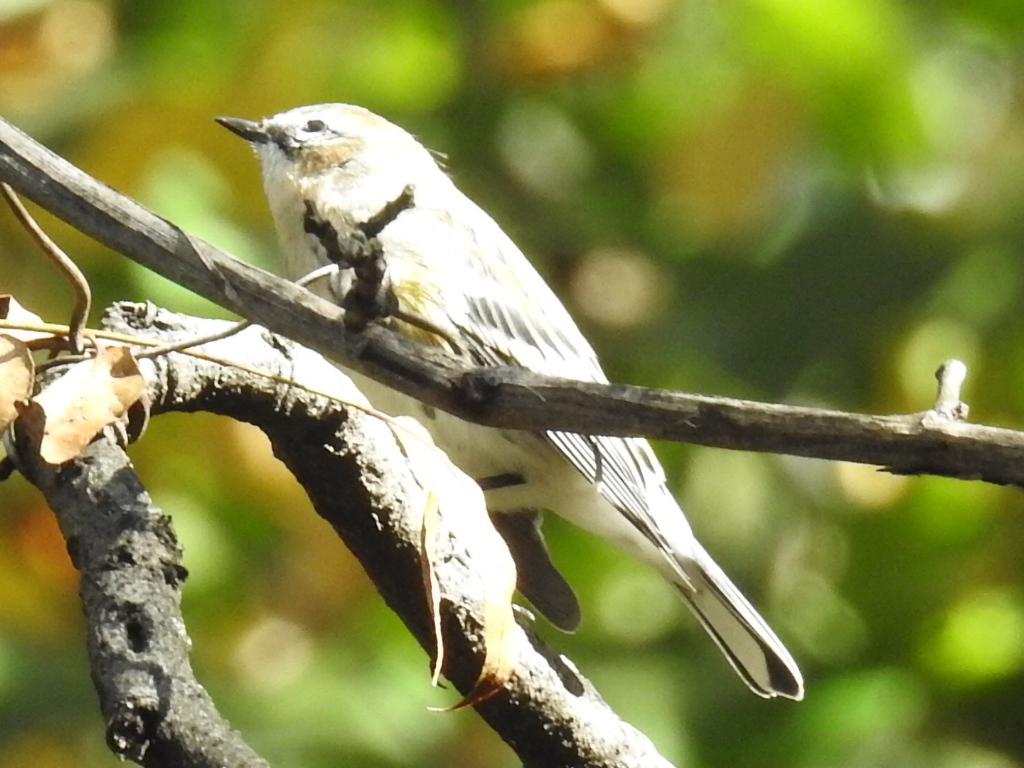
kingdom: Animalia
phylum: Chordata
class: Aves
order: Passeriformes
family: Parulidae
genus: Setophaga
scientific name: Setophaga coronata
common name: Myrtle warbler
